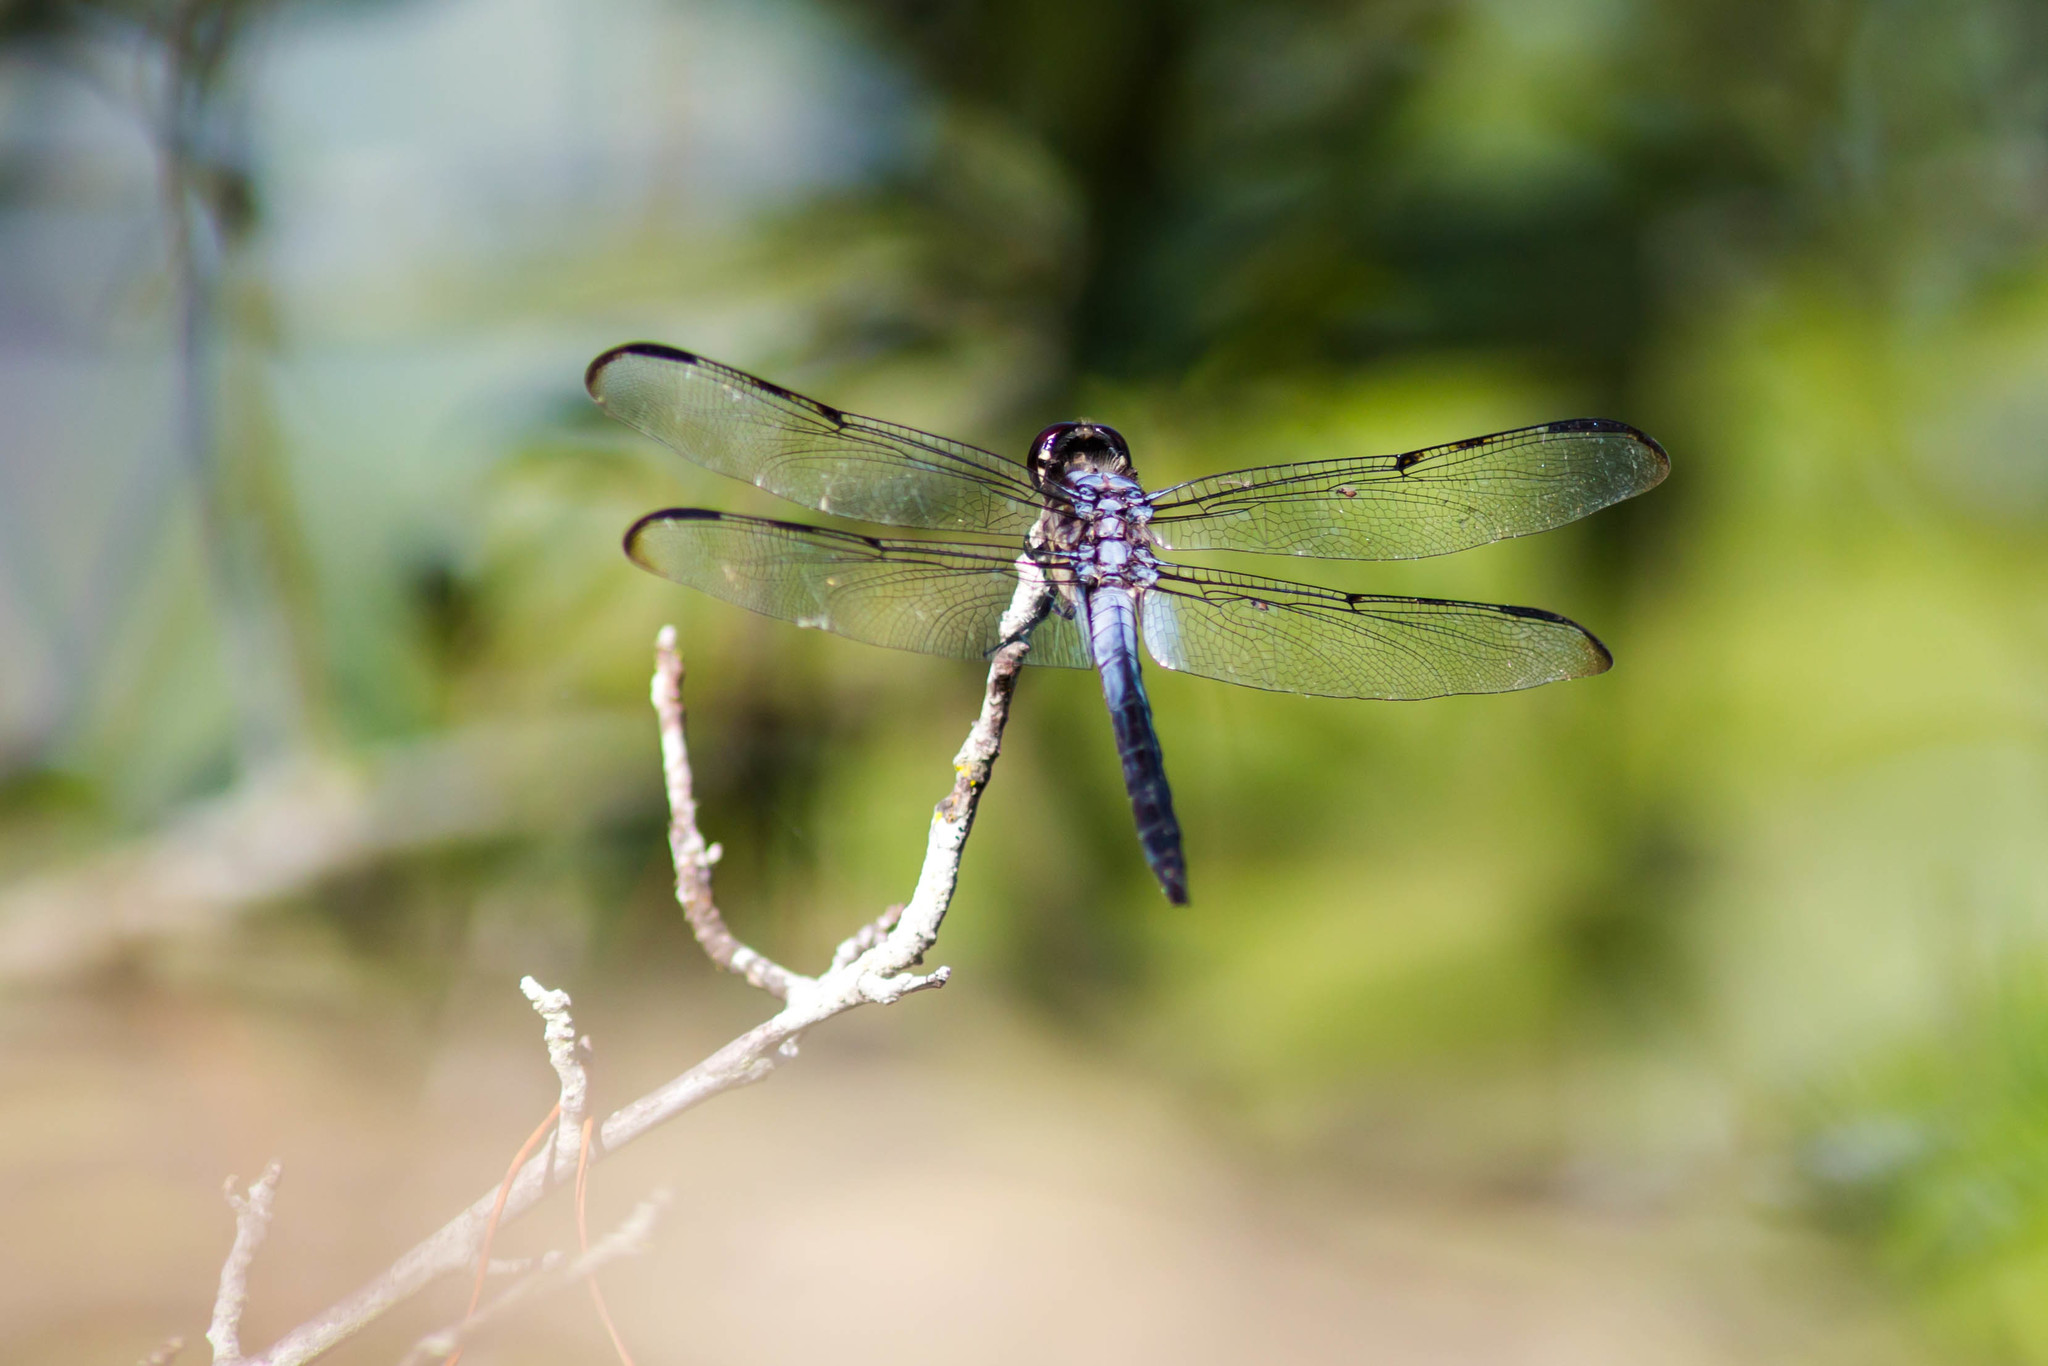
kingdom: Animalia
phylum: Arthropoda
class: Insecta
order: Odonata
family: Libellulidae
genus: Libellula
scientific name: Libellula axilena
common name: Bar-winged skimmer
